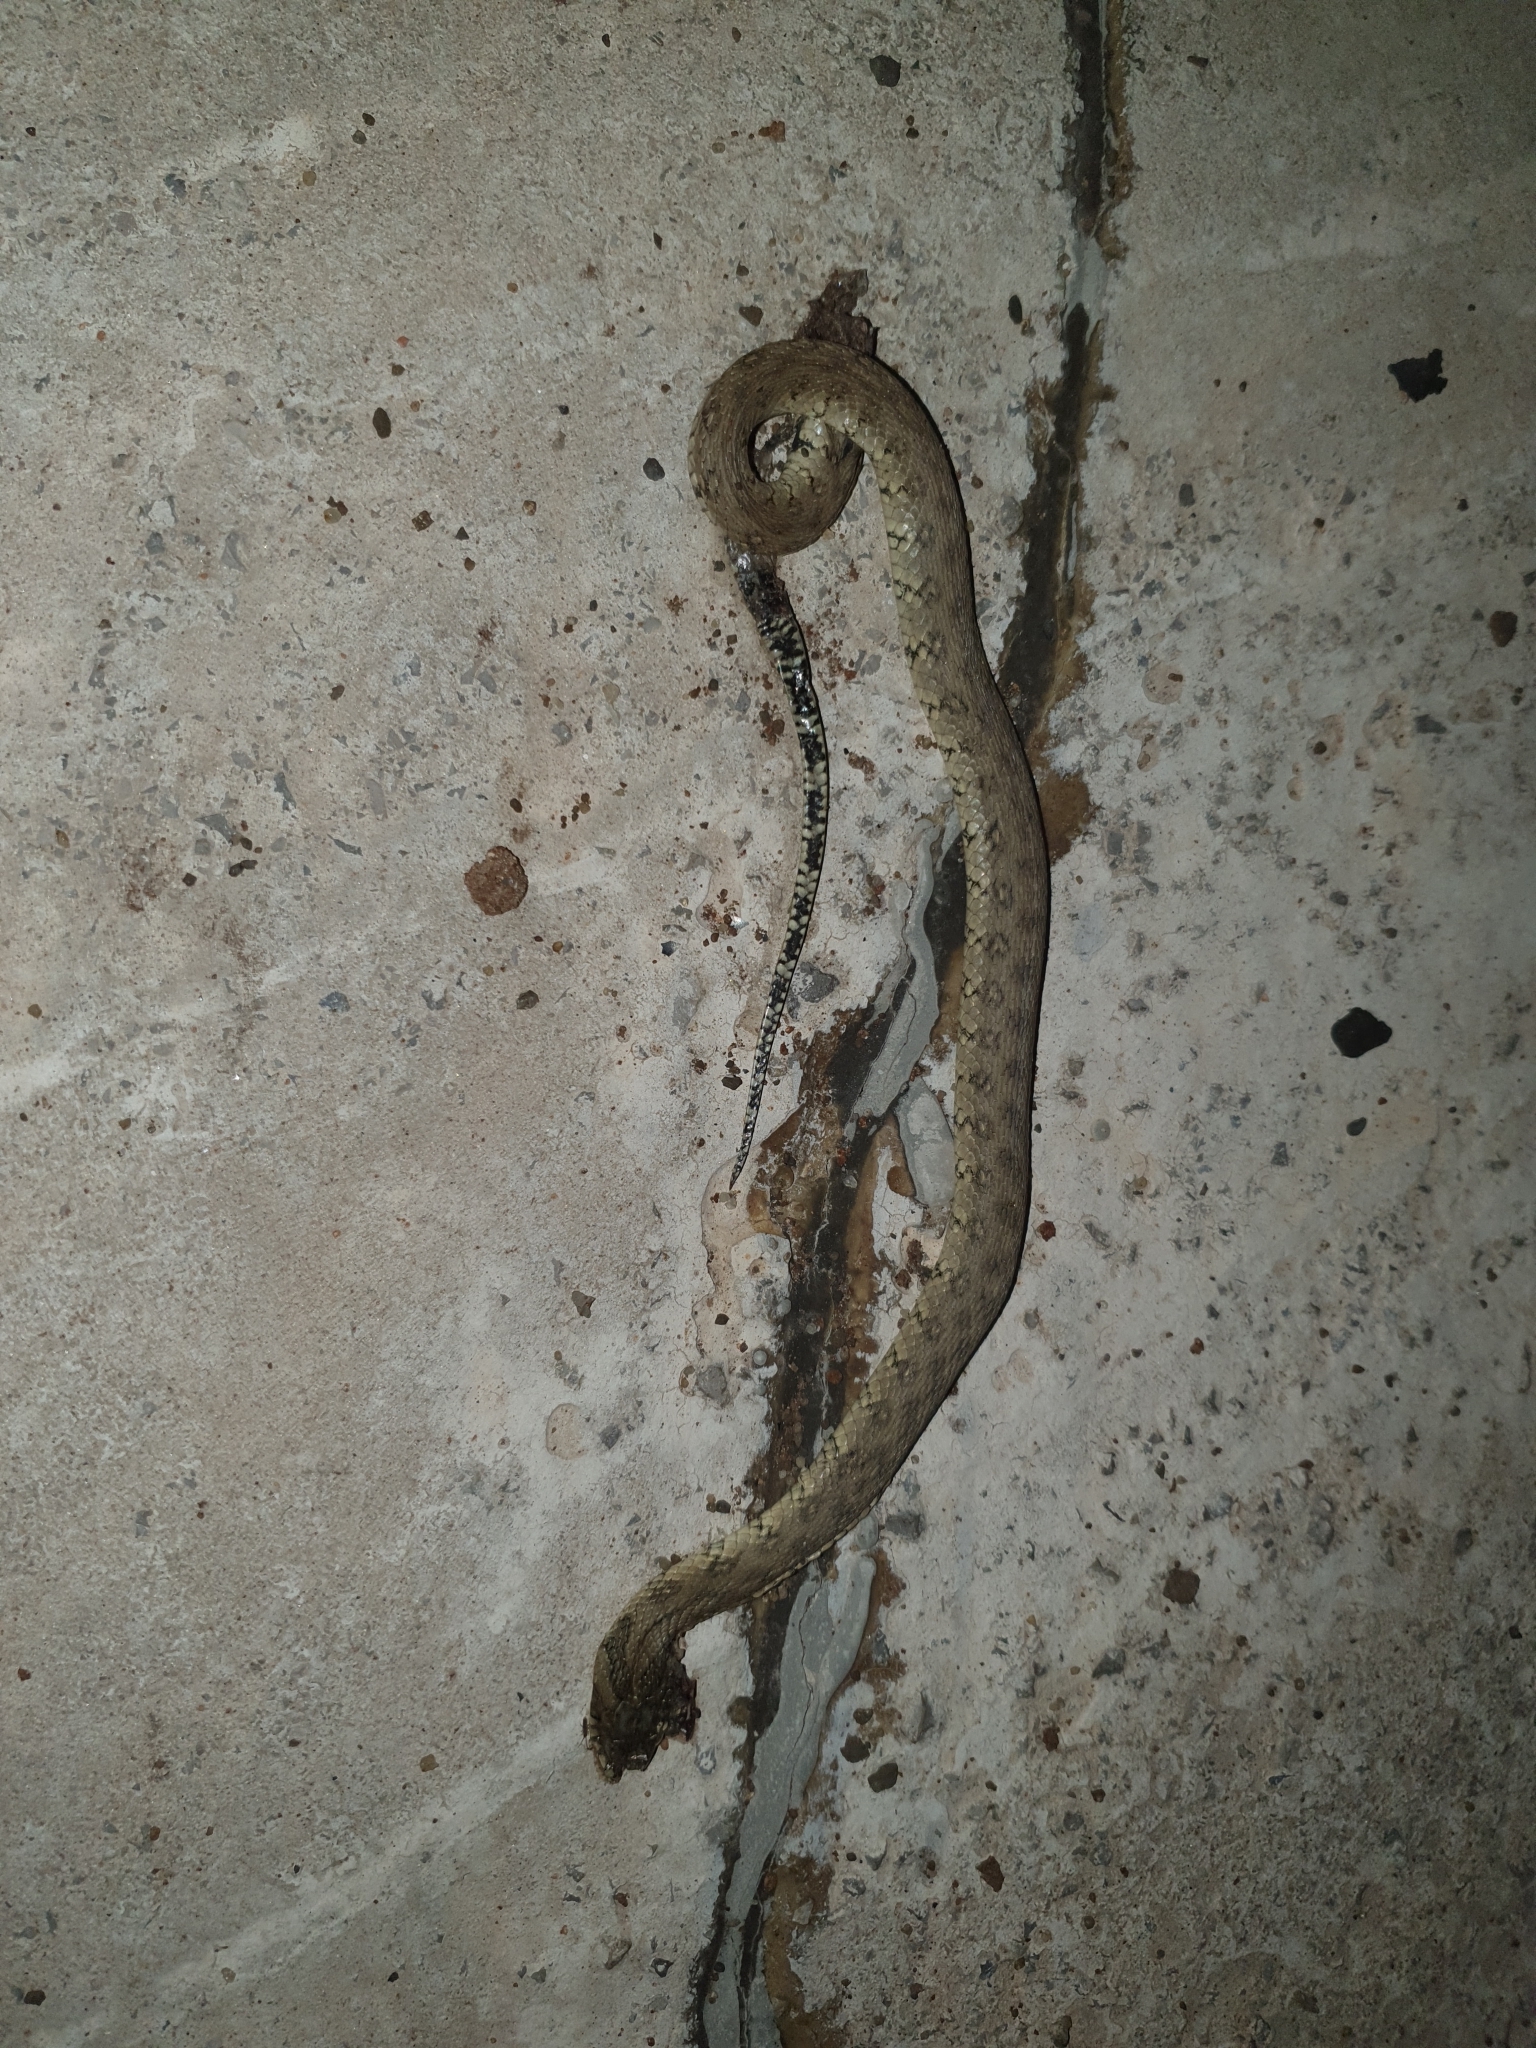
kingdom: Animalia
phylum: Chordata
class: Squamata
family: Colubridae
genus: Natrix
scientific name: Natrix maura
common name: Viperine water snake
